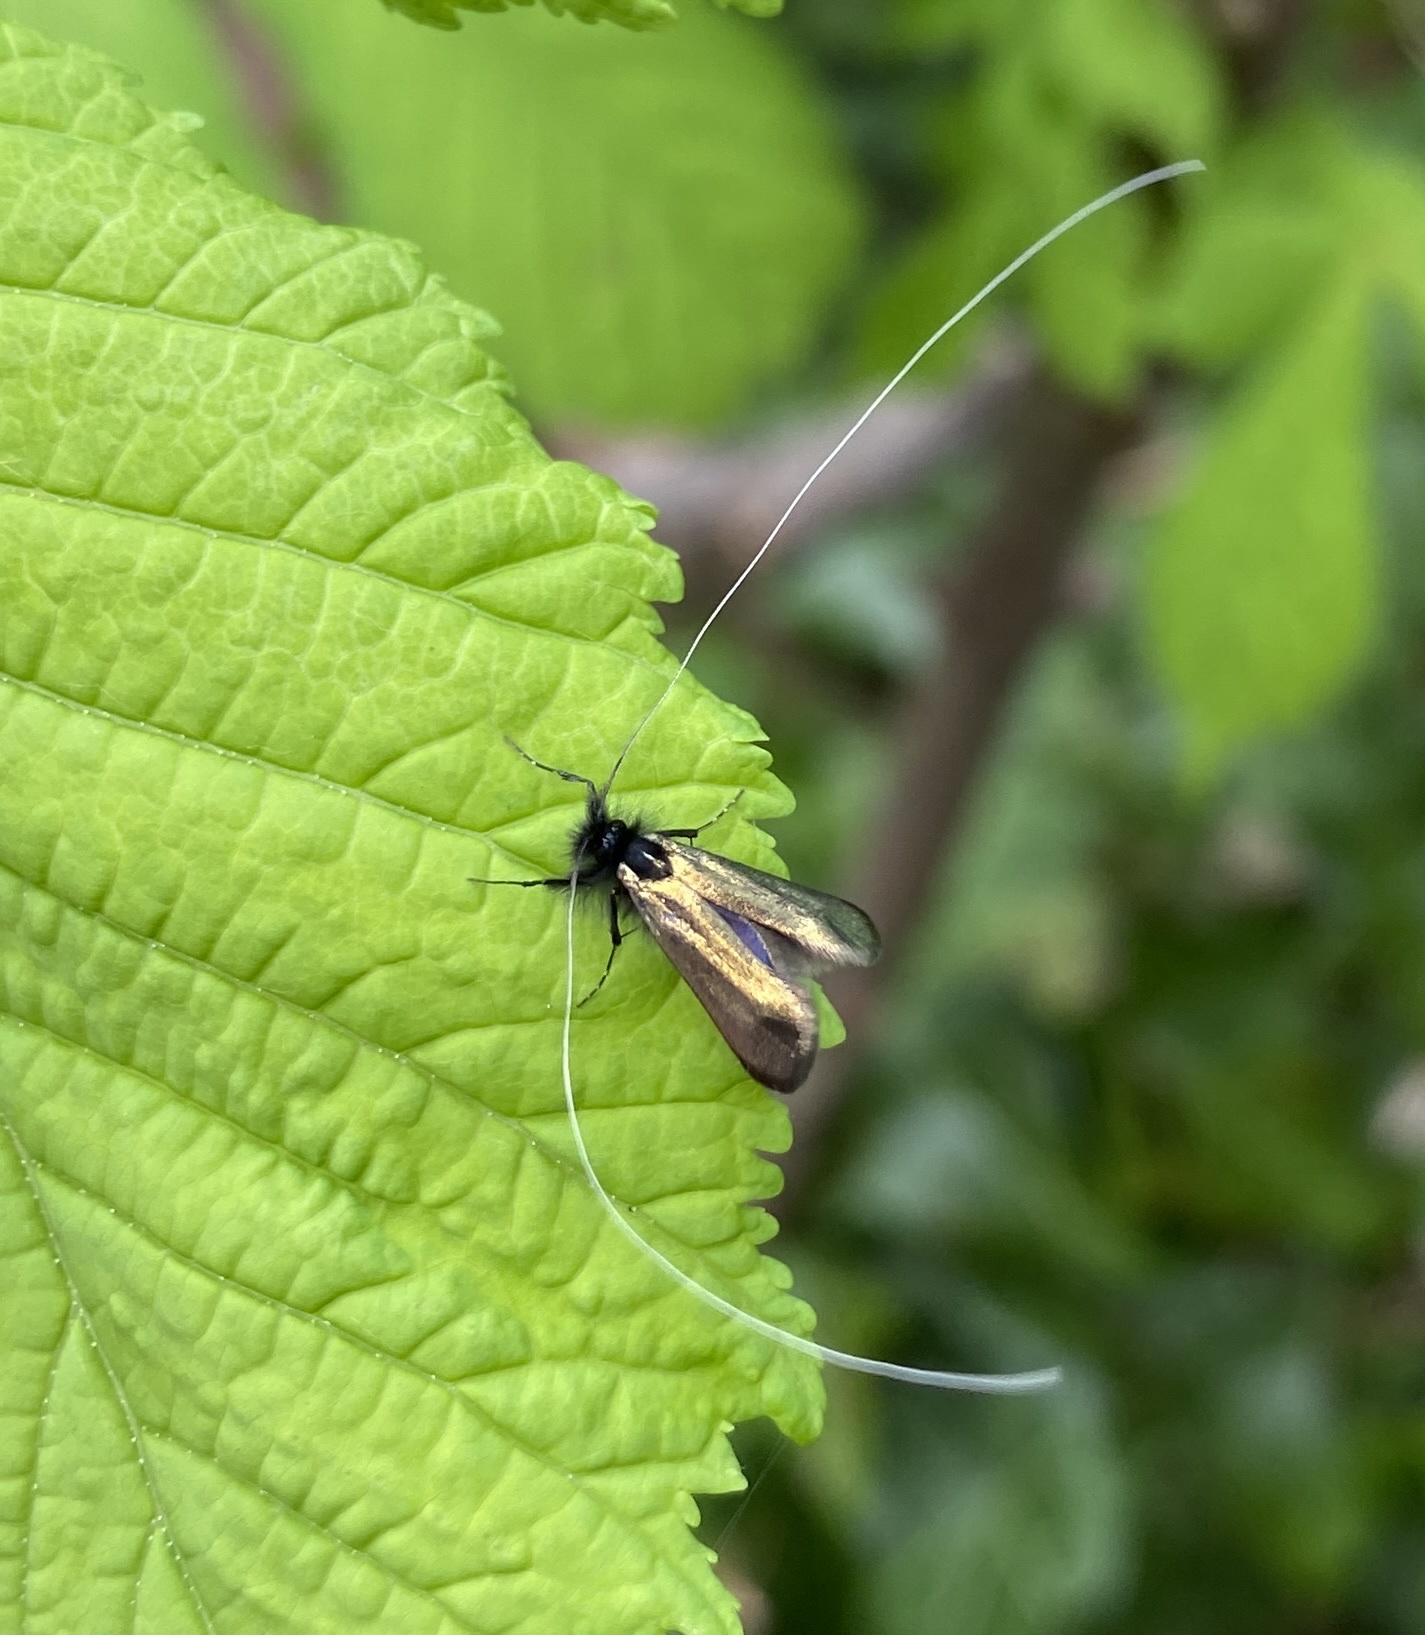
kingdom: Animalia
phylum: Arthropoda
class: Insecta
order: Lepidoptera
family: Adelidae
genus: Adela
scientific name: Adela viridella
